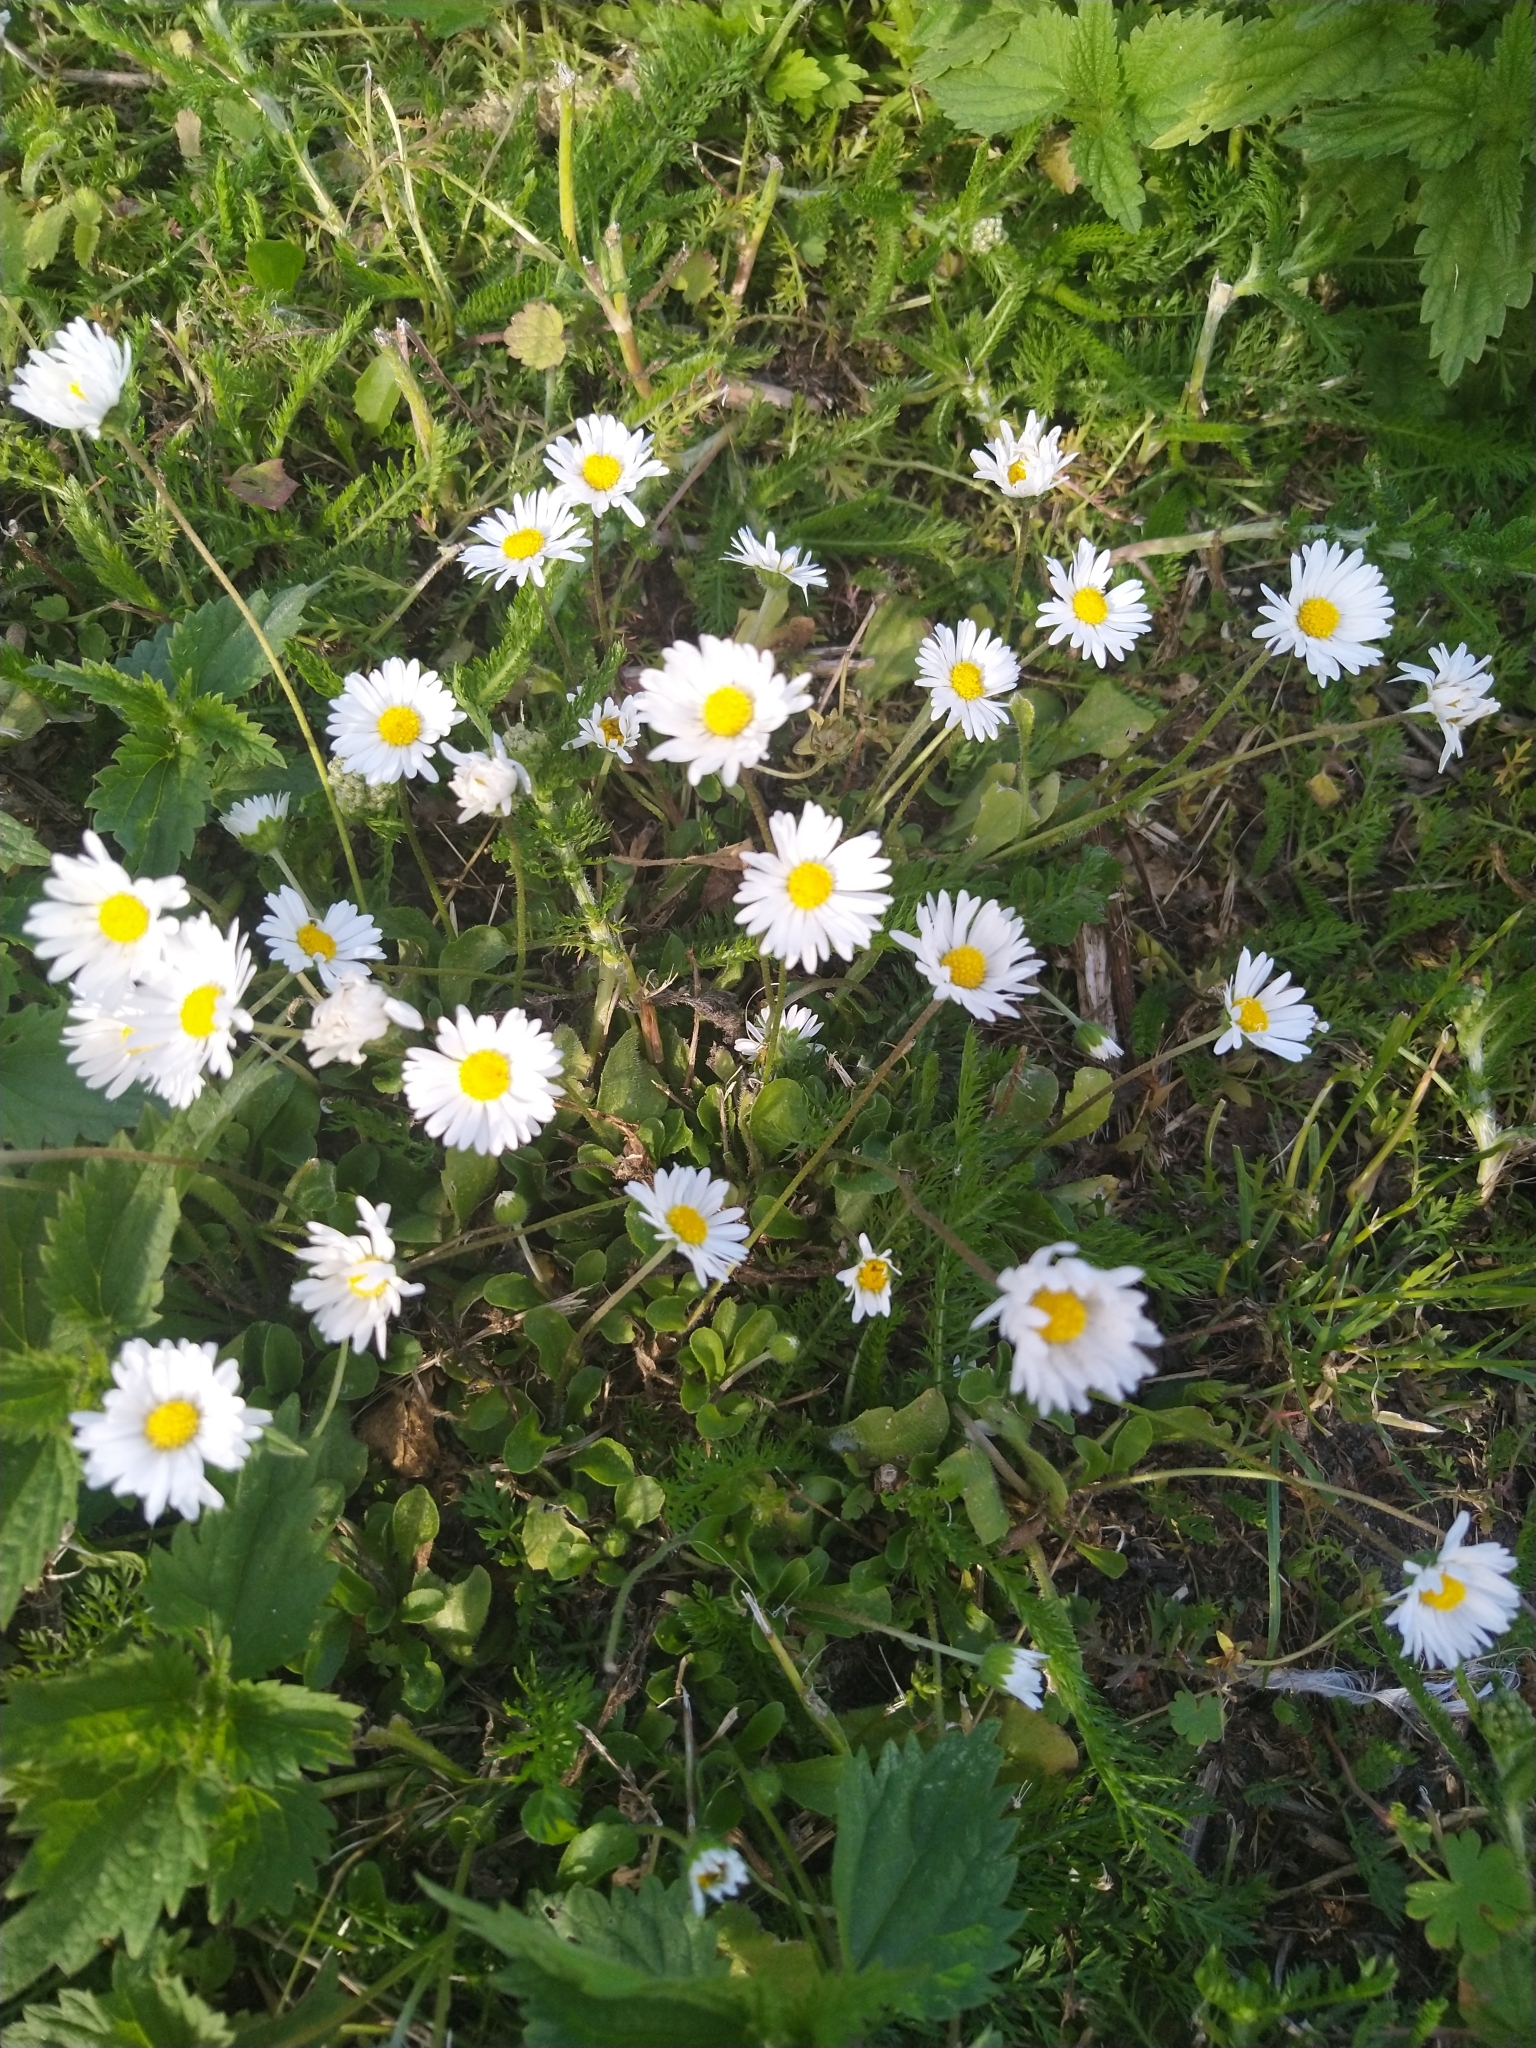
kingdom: Plantae
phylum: Tracheophyta
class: Magnoliopsida
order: Asterales
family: Asteraceae
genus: Bellis
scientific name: Bellis perennis
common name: Lawndaisy
